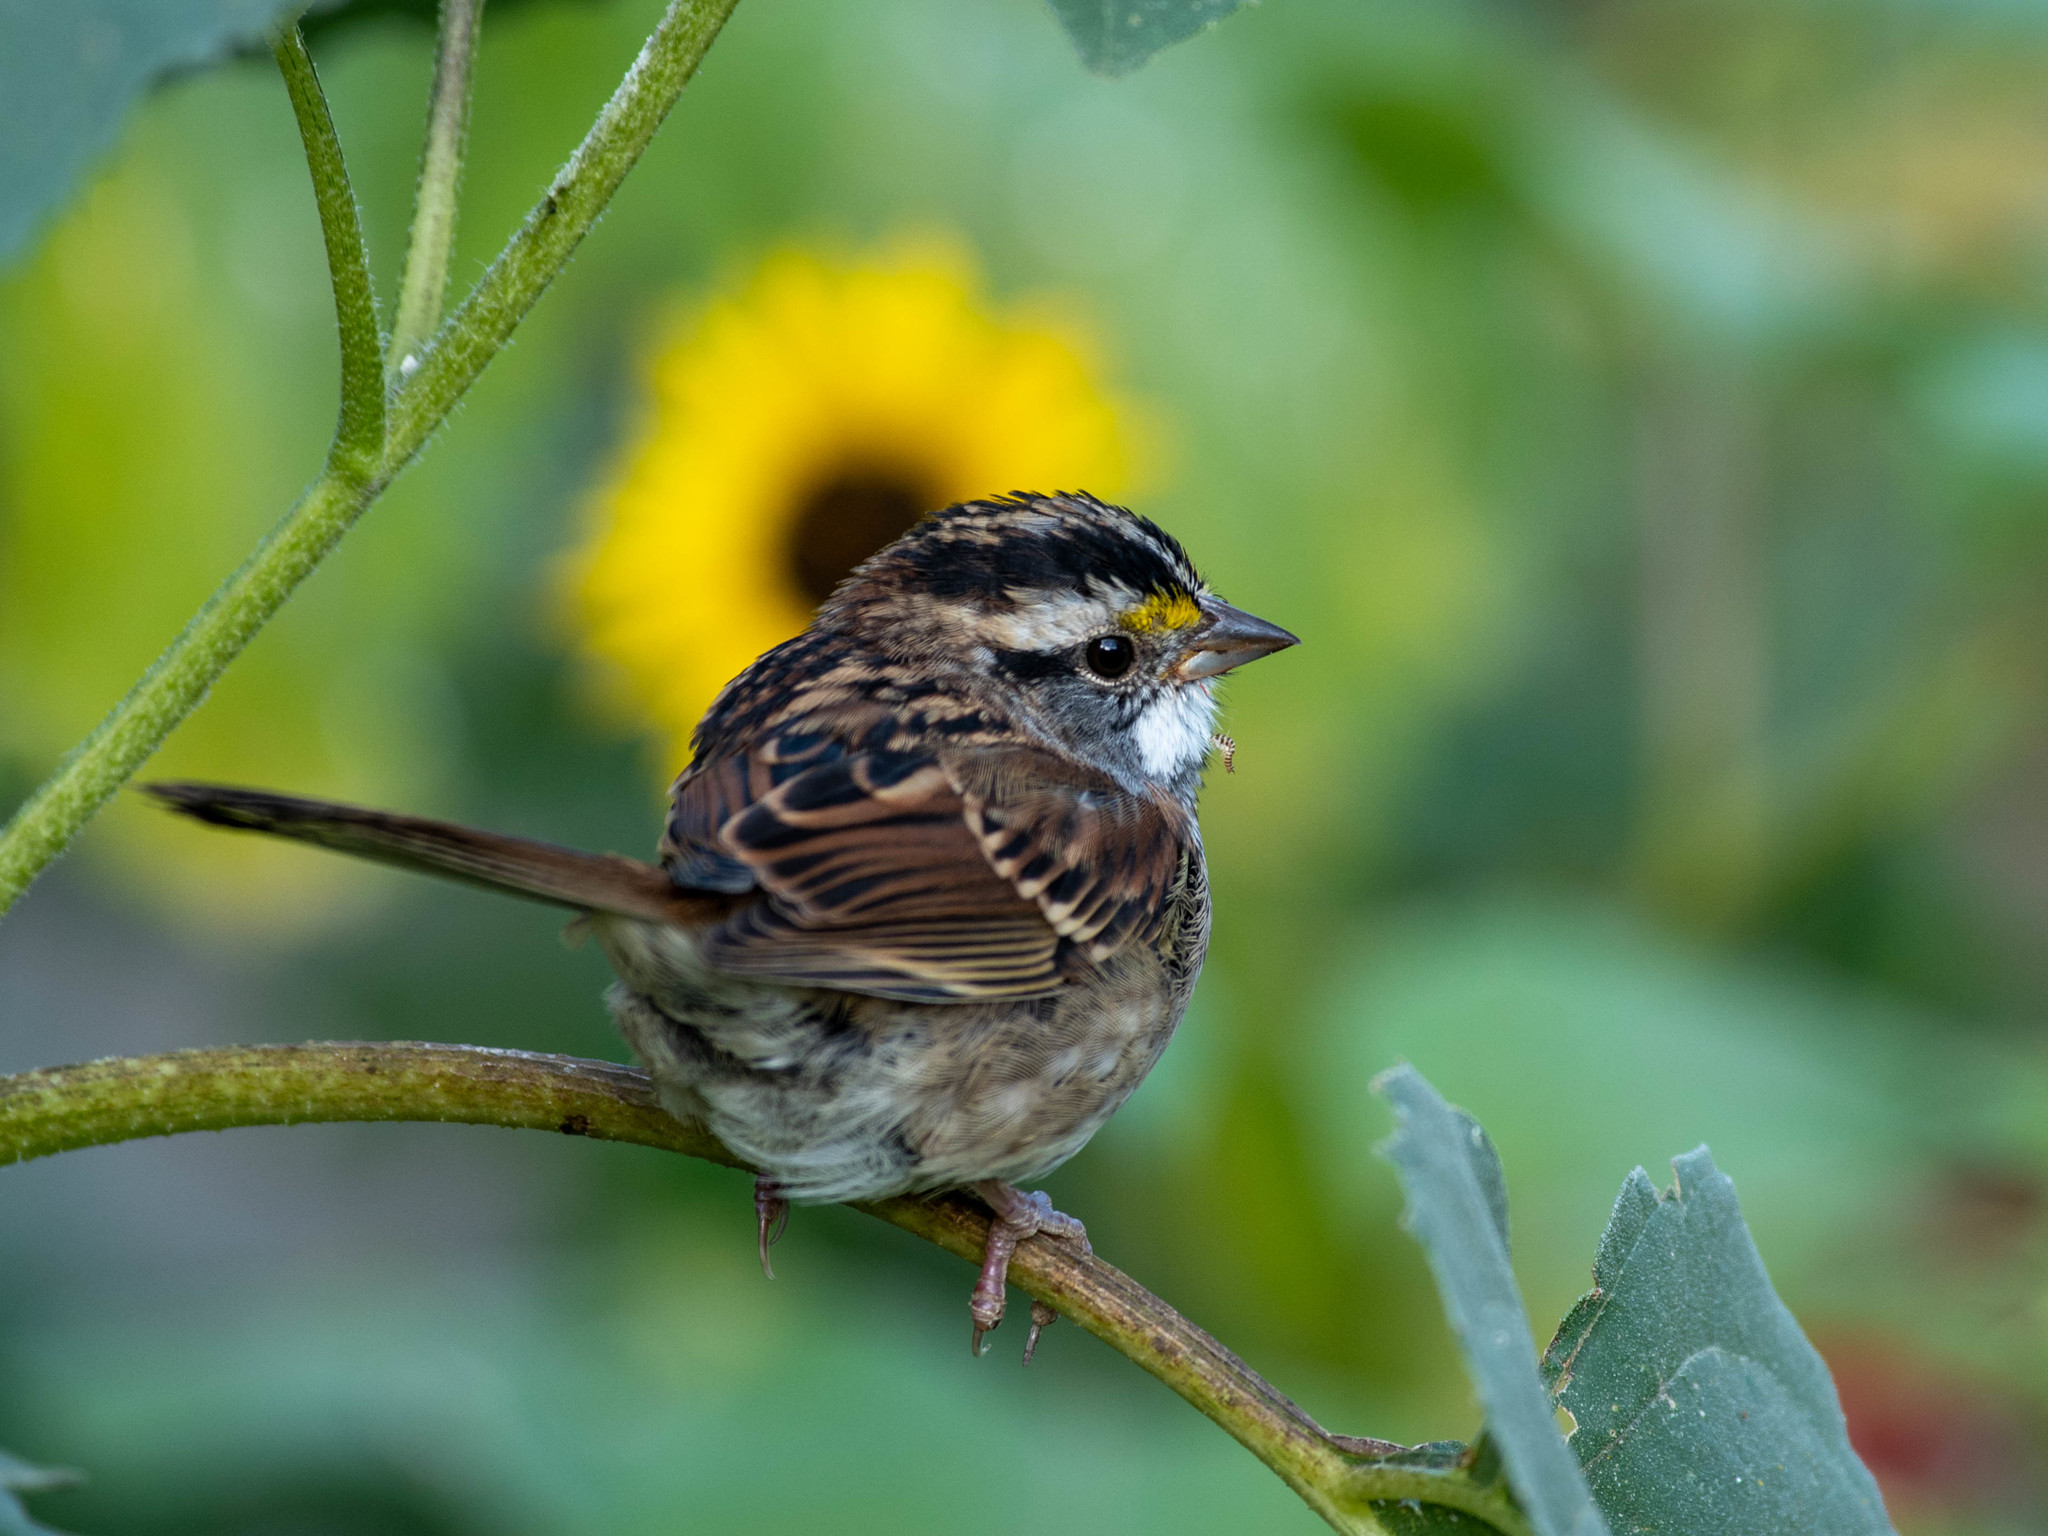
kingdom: Animalia
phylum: Chordata
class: Aves
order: Passeriformes
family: Passerellidae
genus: Zonotrichia
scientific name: Zonotrichia albicollis
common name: White-throated sparrow
